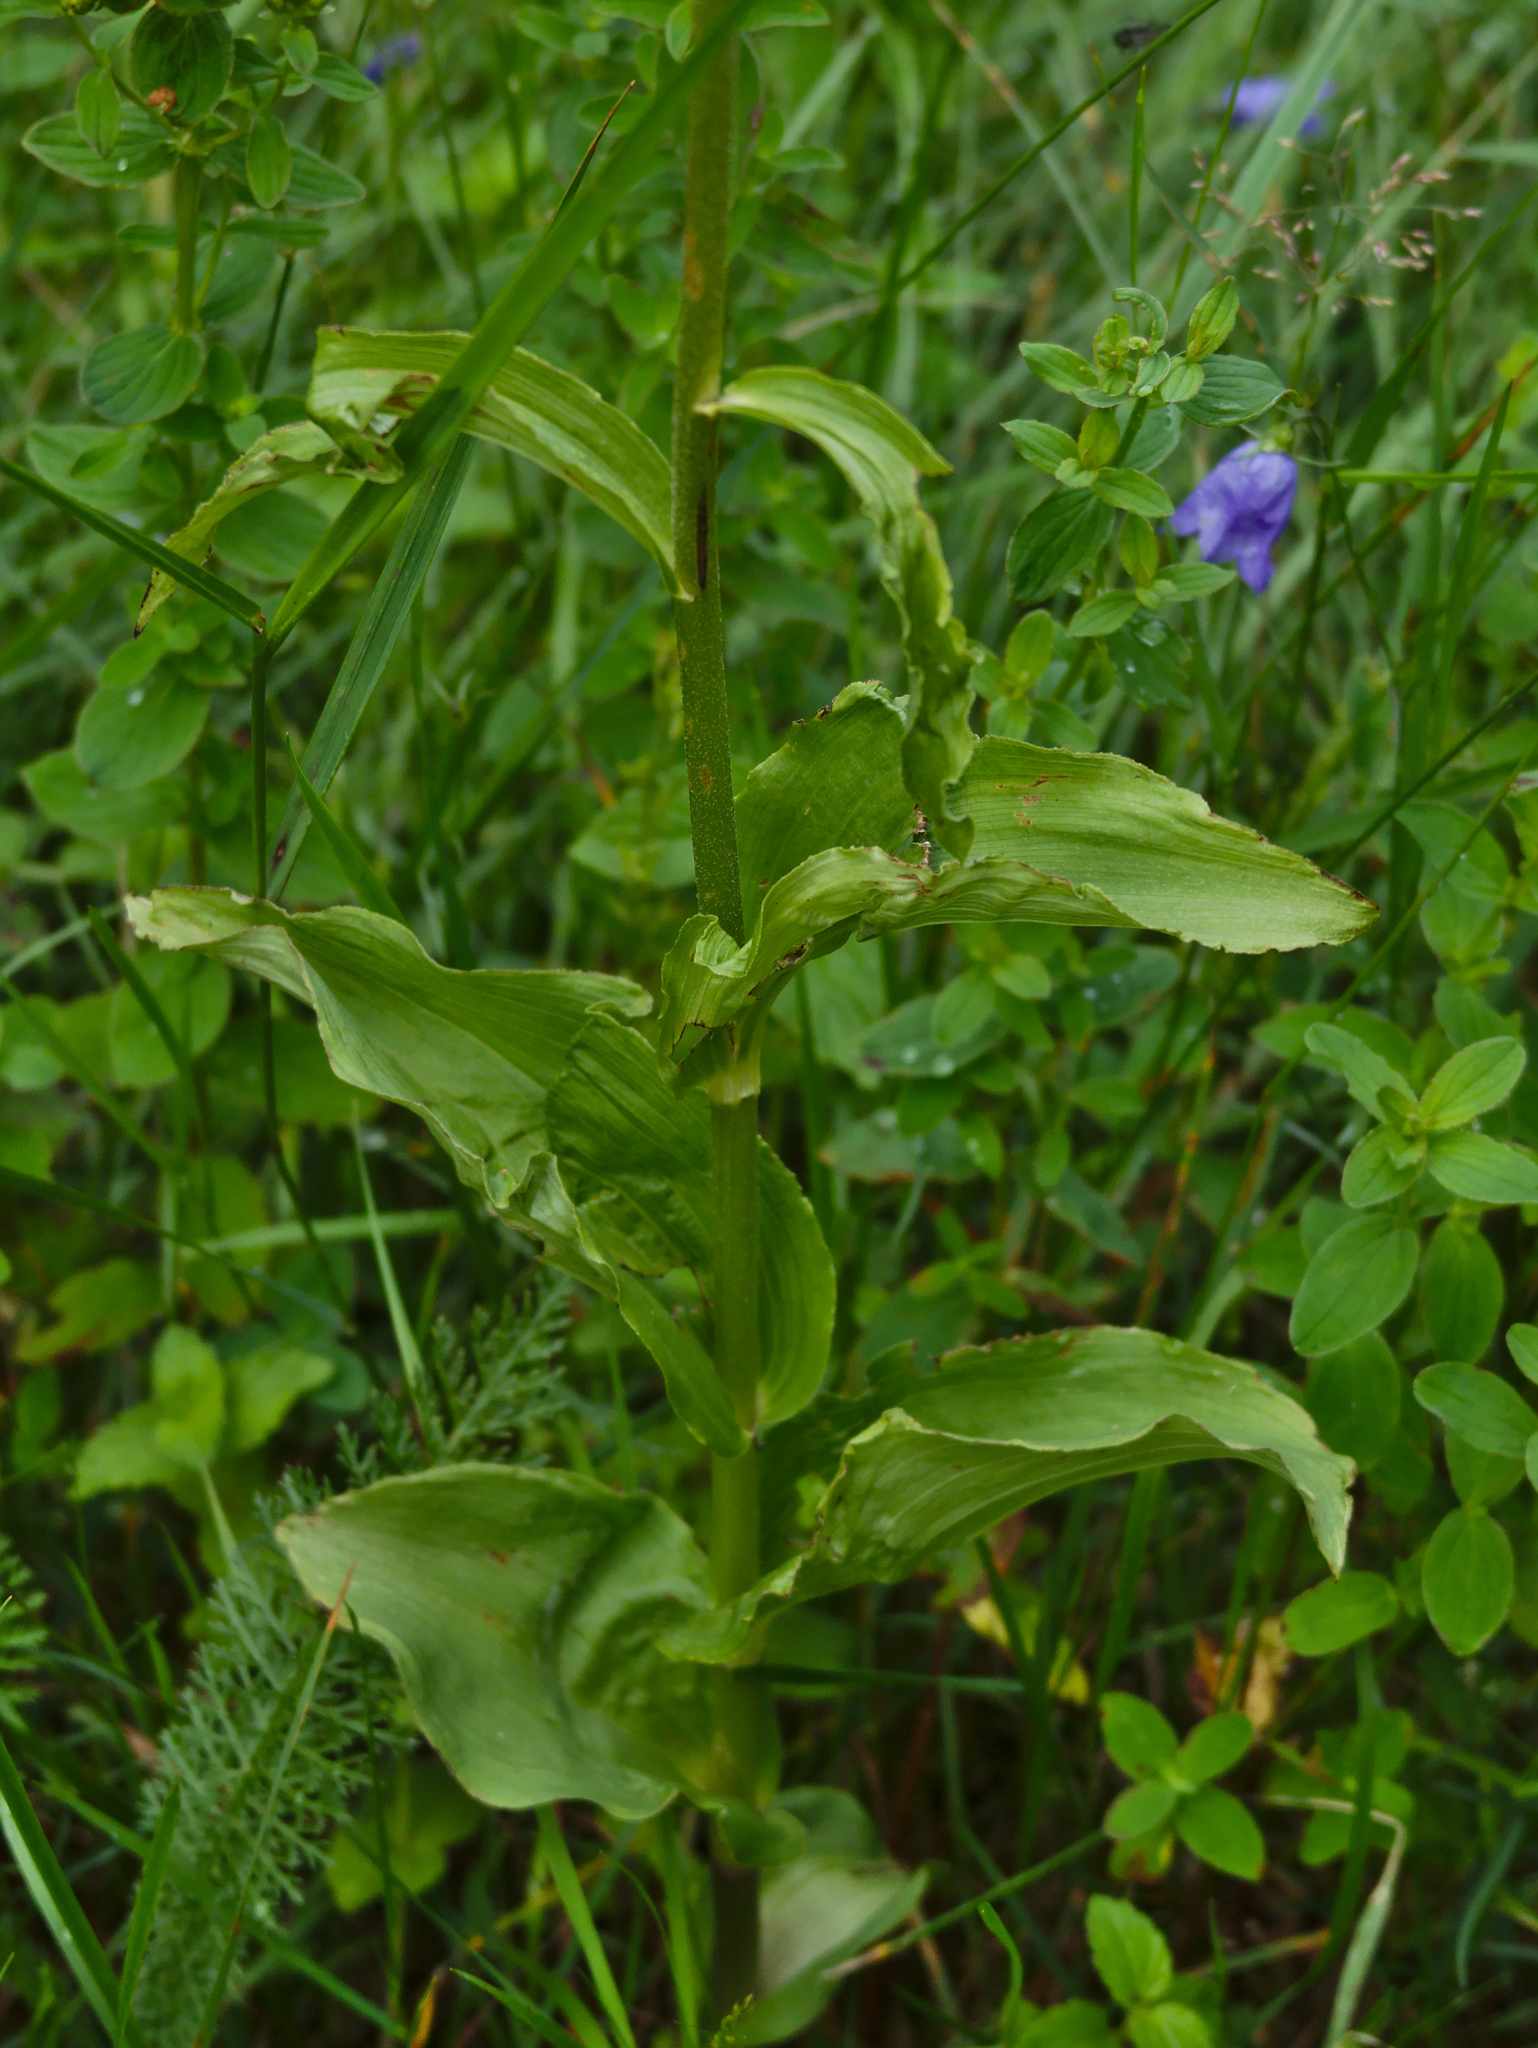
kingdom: Plantae
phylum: Tracheophyta
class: Liliopsida
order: Asparagales
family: Orchidaceae
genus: Epipactis
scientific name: Epipactis helleborine
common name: Broad-leaved helleborine
